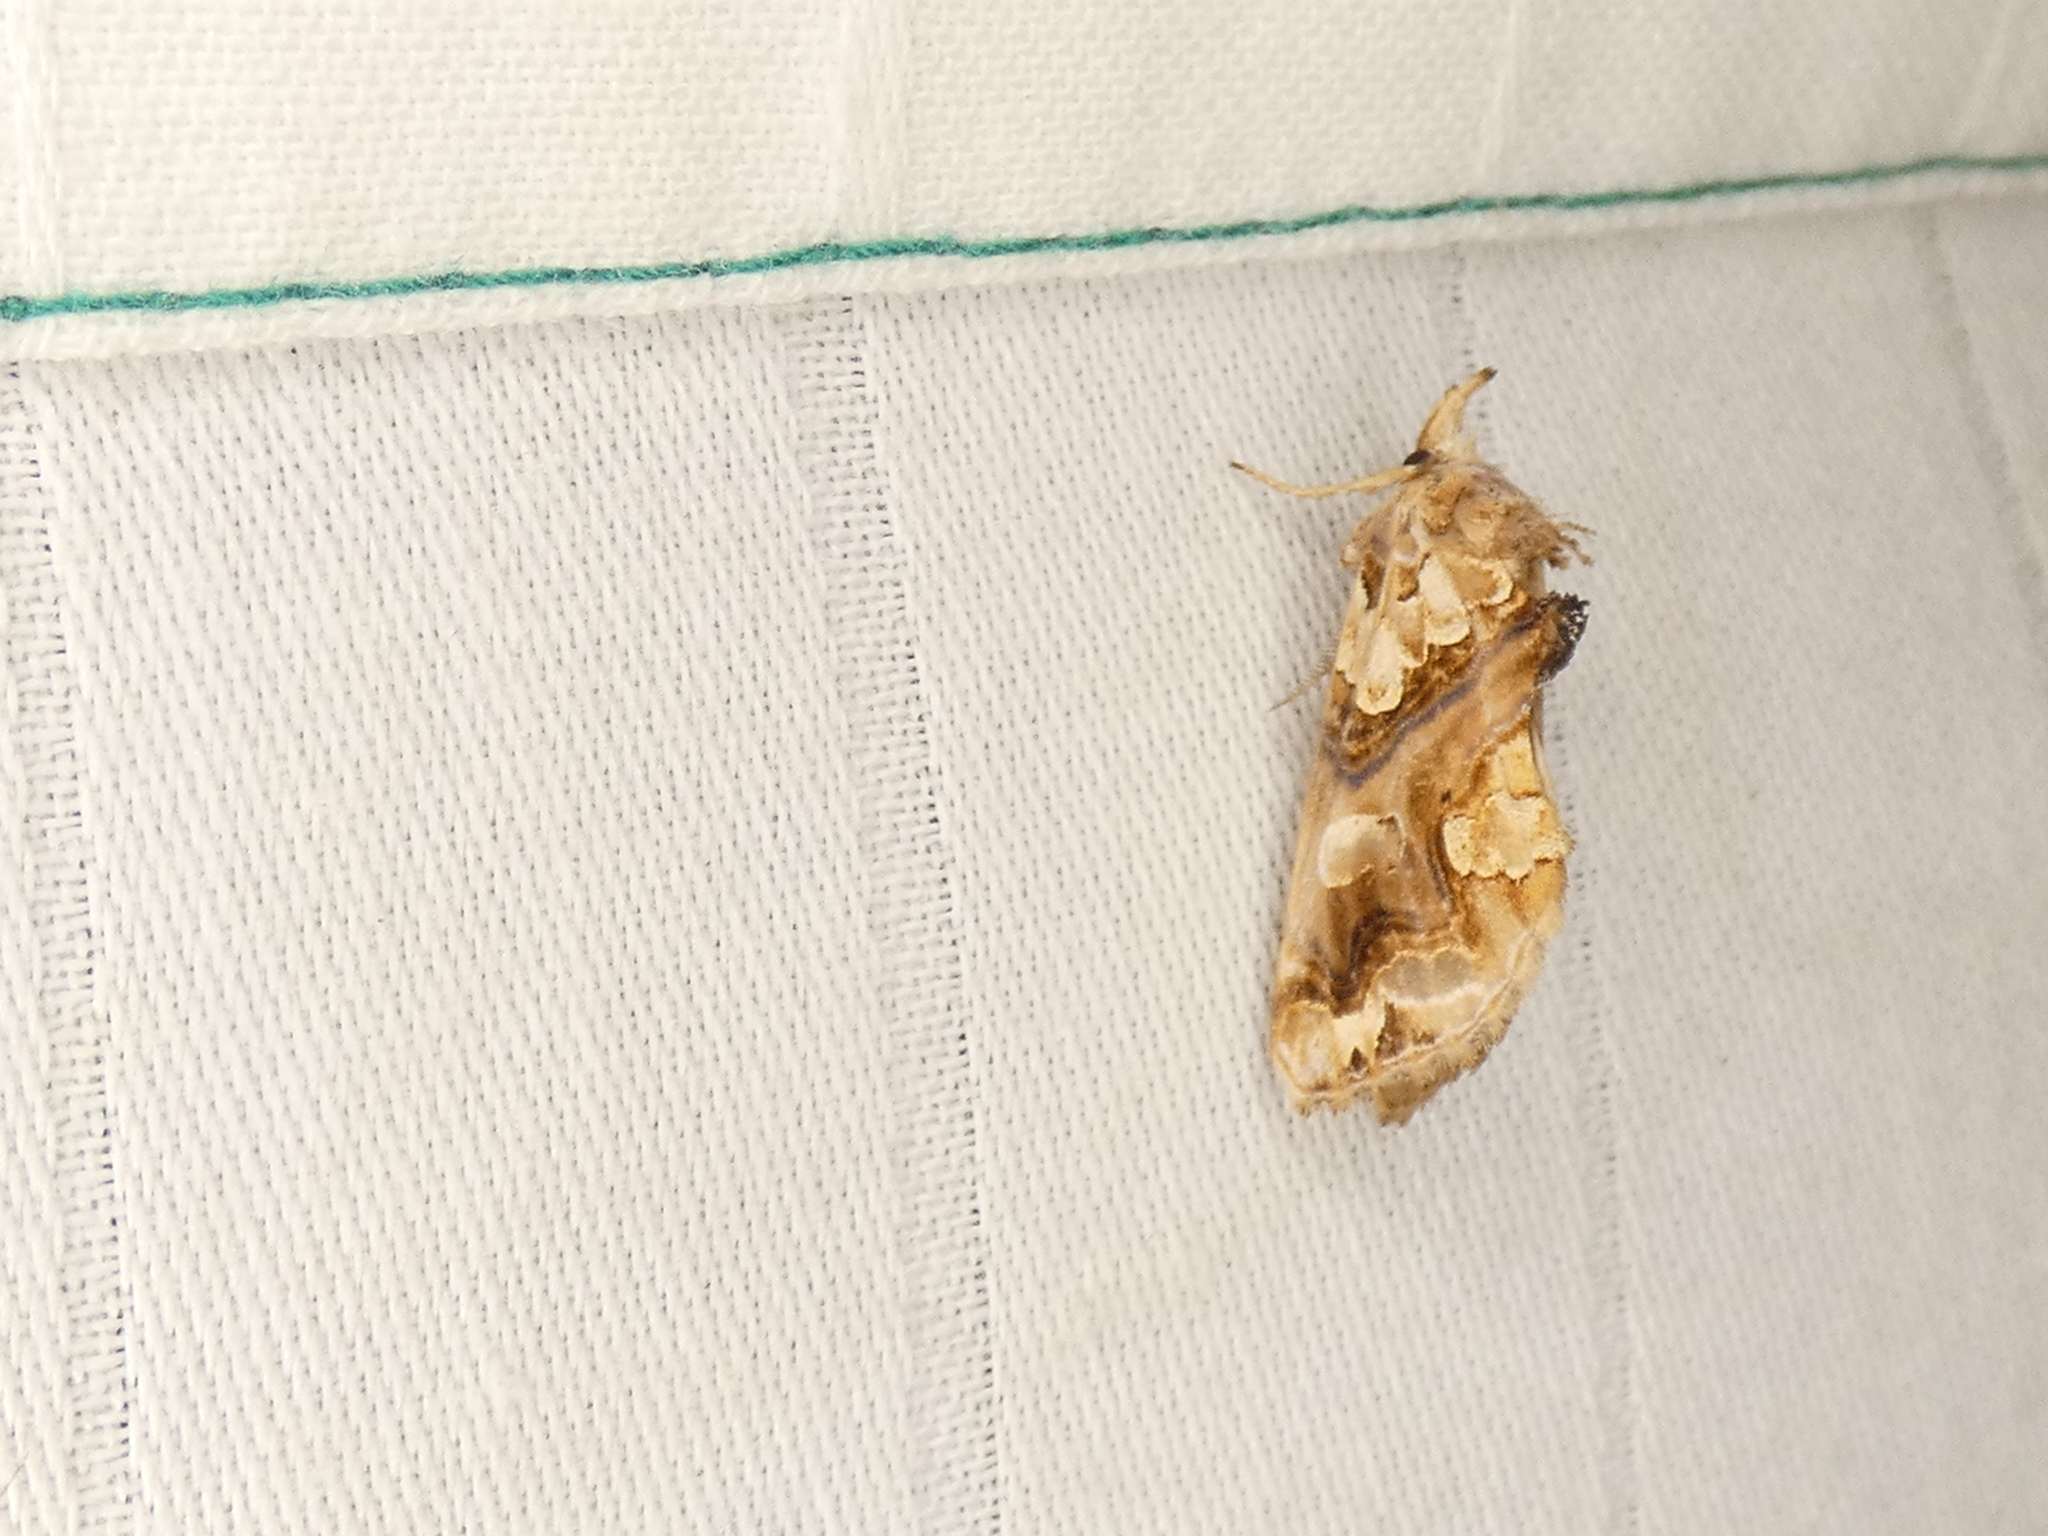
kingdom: Animalia
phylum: Arthropoda
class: Insecta
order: Lepidoptera
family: Erebidae
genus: Plusiodonta
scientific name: Plusiodonta compressipalpis
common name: Moonseed moth
